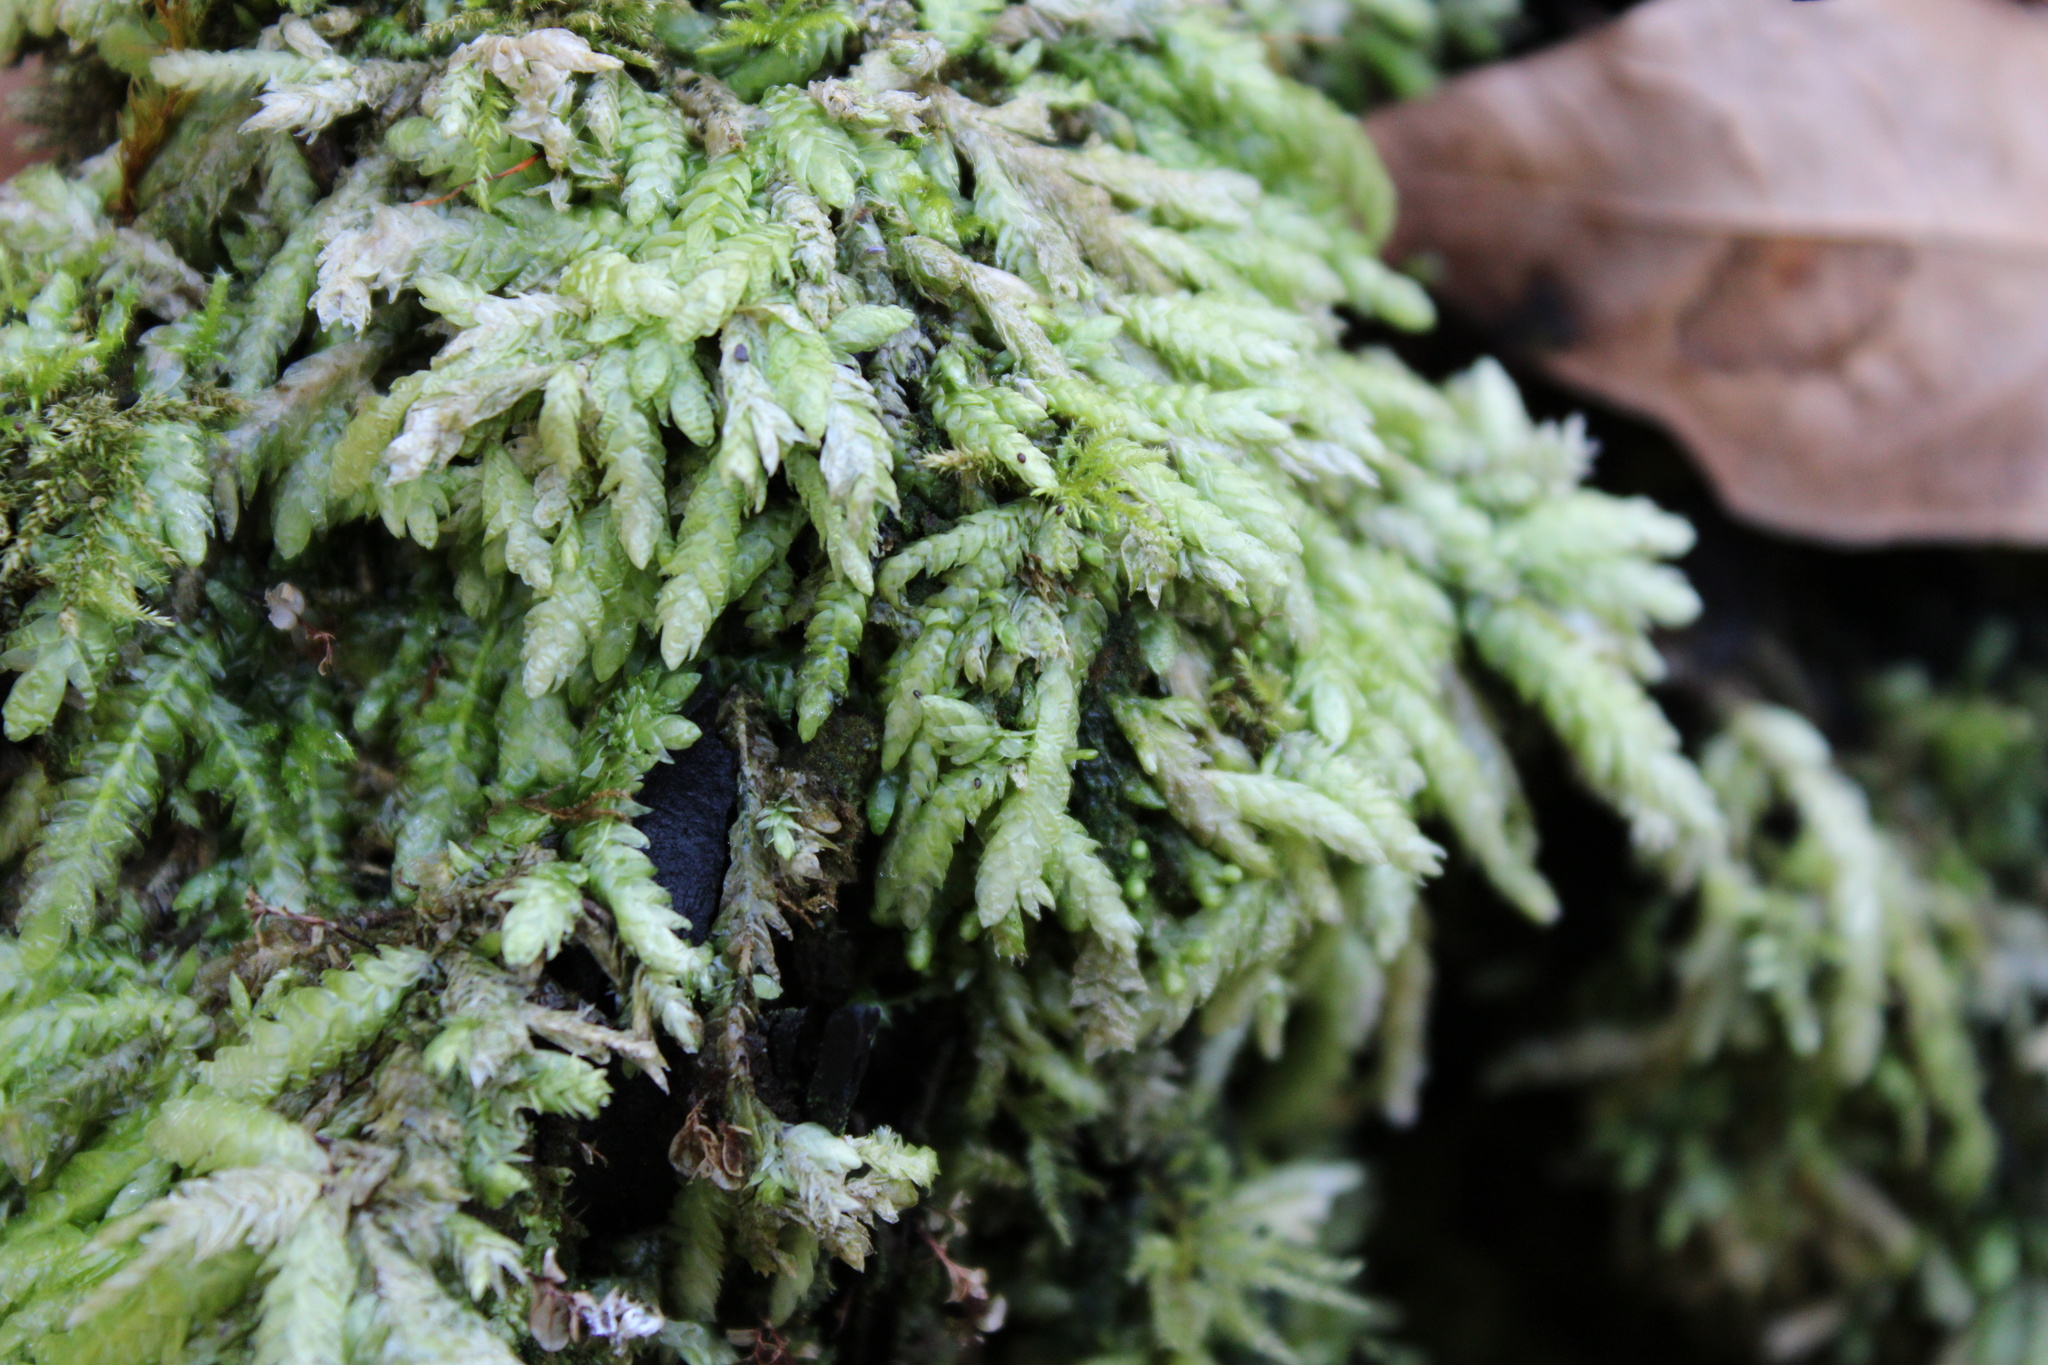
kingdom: Plantae
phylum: Bryophyta
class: Bryopsida
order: Hypnales
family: Plagiotheciaceae
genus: Plagiothecium
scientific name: Plagiothecium undulatum
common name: Waved silk-moss
